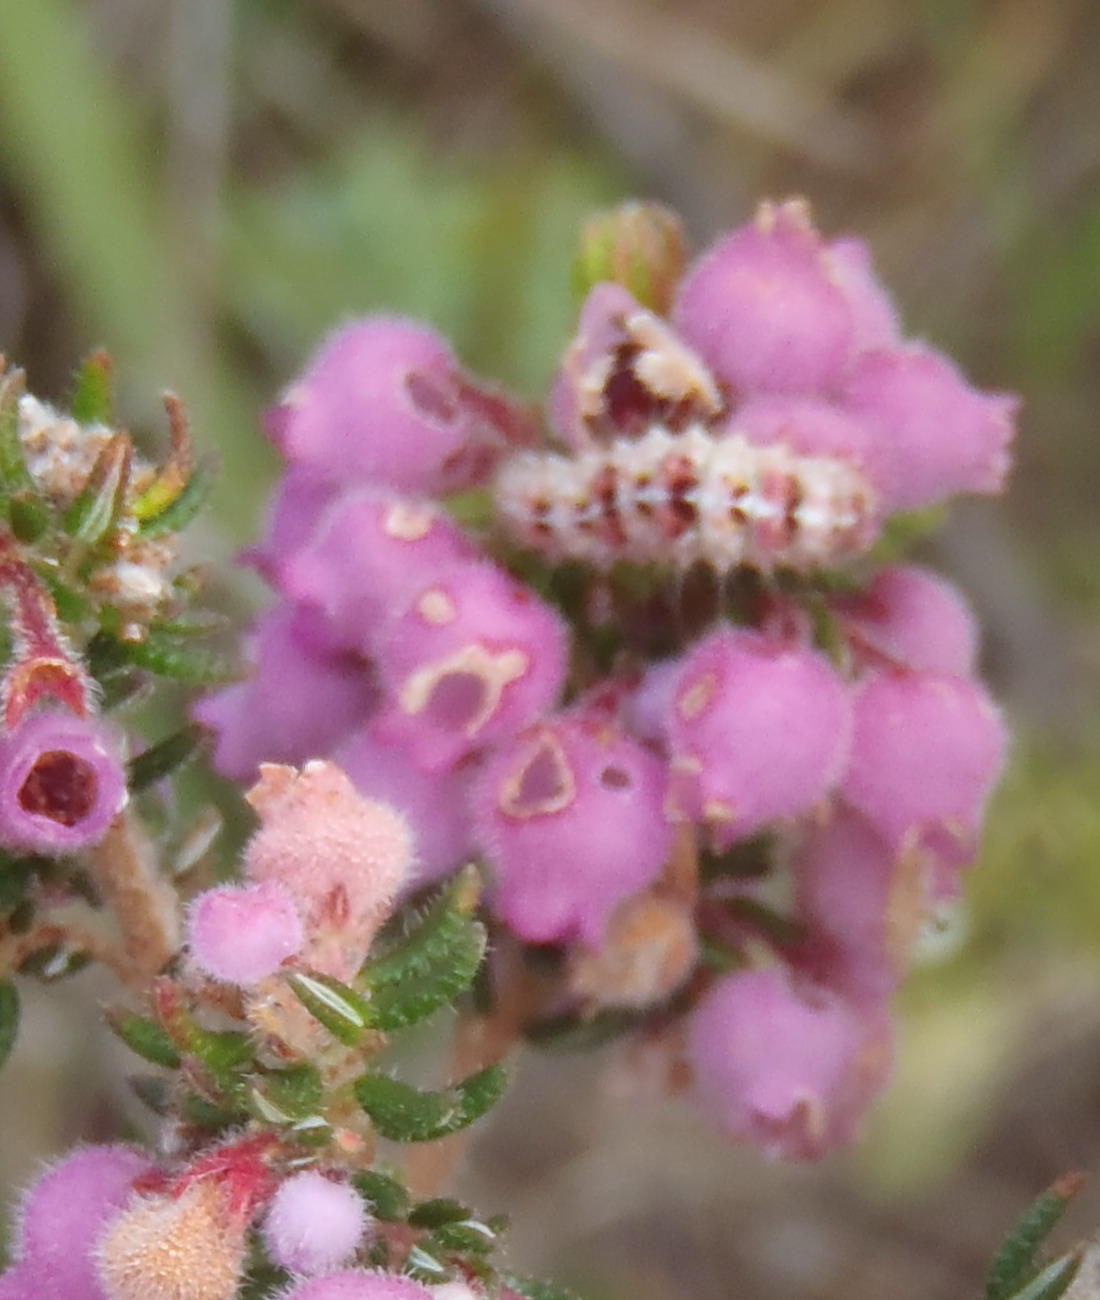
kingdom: Animalia
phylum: Arthropoda
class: Insecta
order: Lepidoptera
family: Nolidae
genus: Nolidia
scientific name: Nolidia unipuncta
